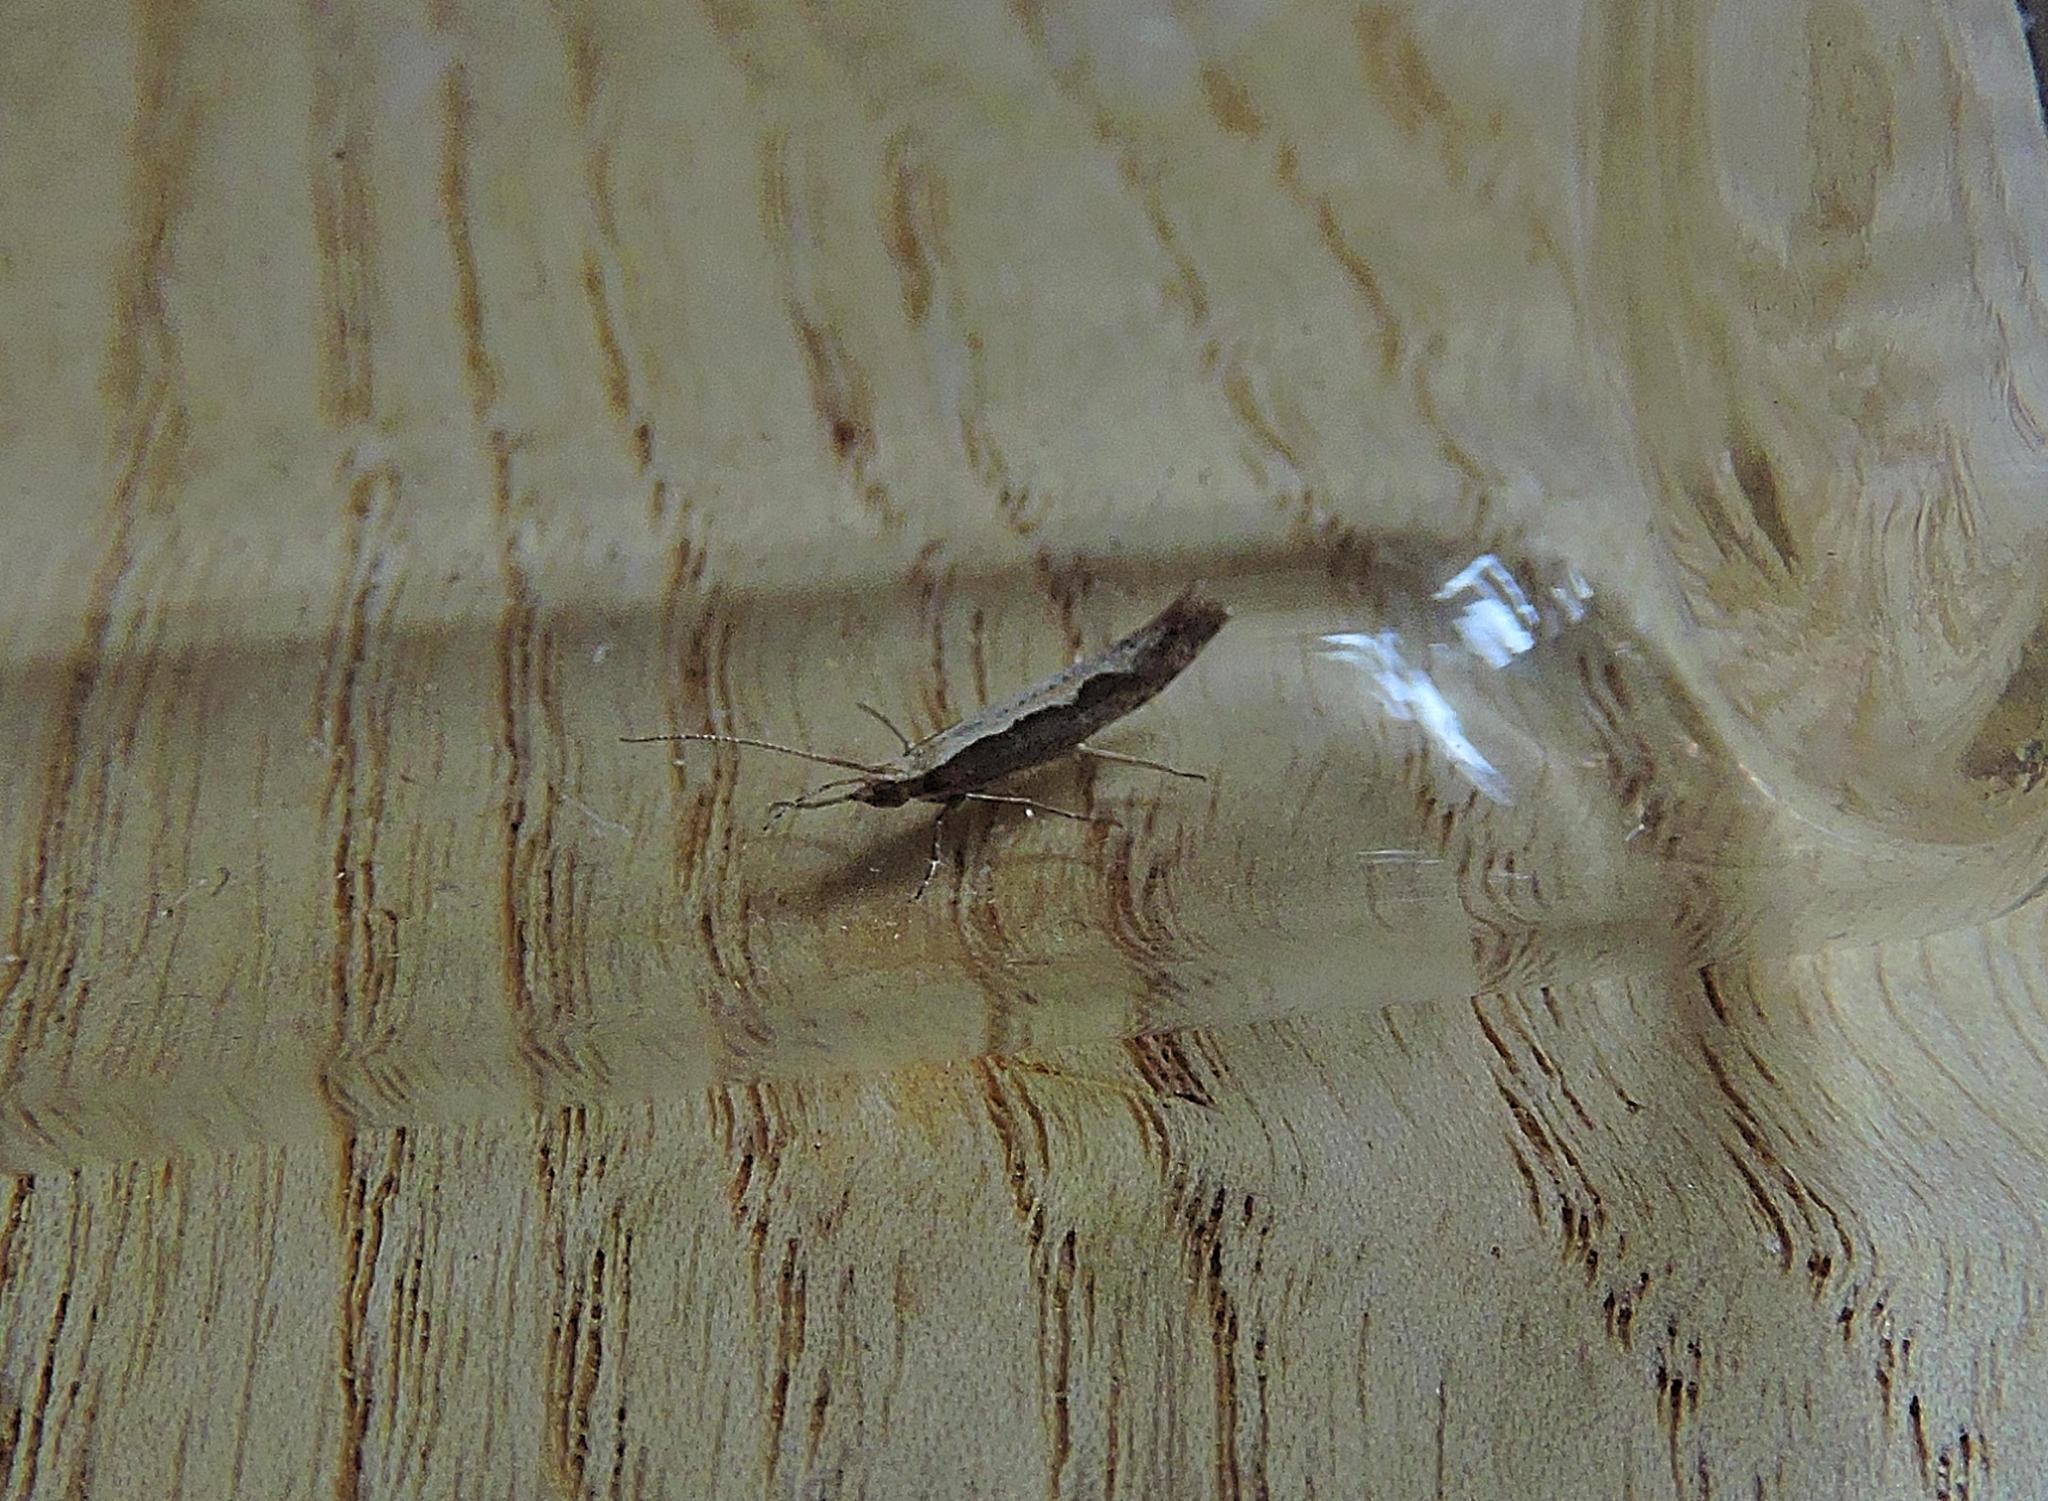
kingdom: Animalia
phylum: Arthropoda
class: Insecta
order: Lepidoptera
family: Plutellidae
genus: Plutella
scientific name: Plutella xylostella
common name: Diamond-back moth
